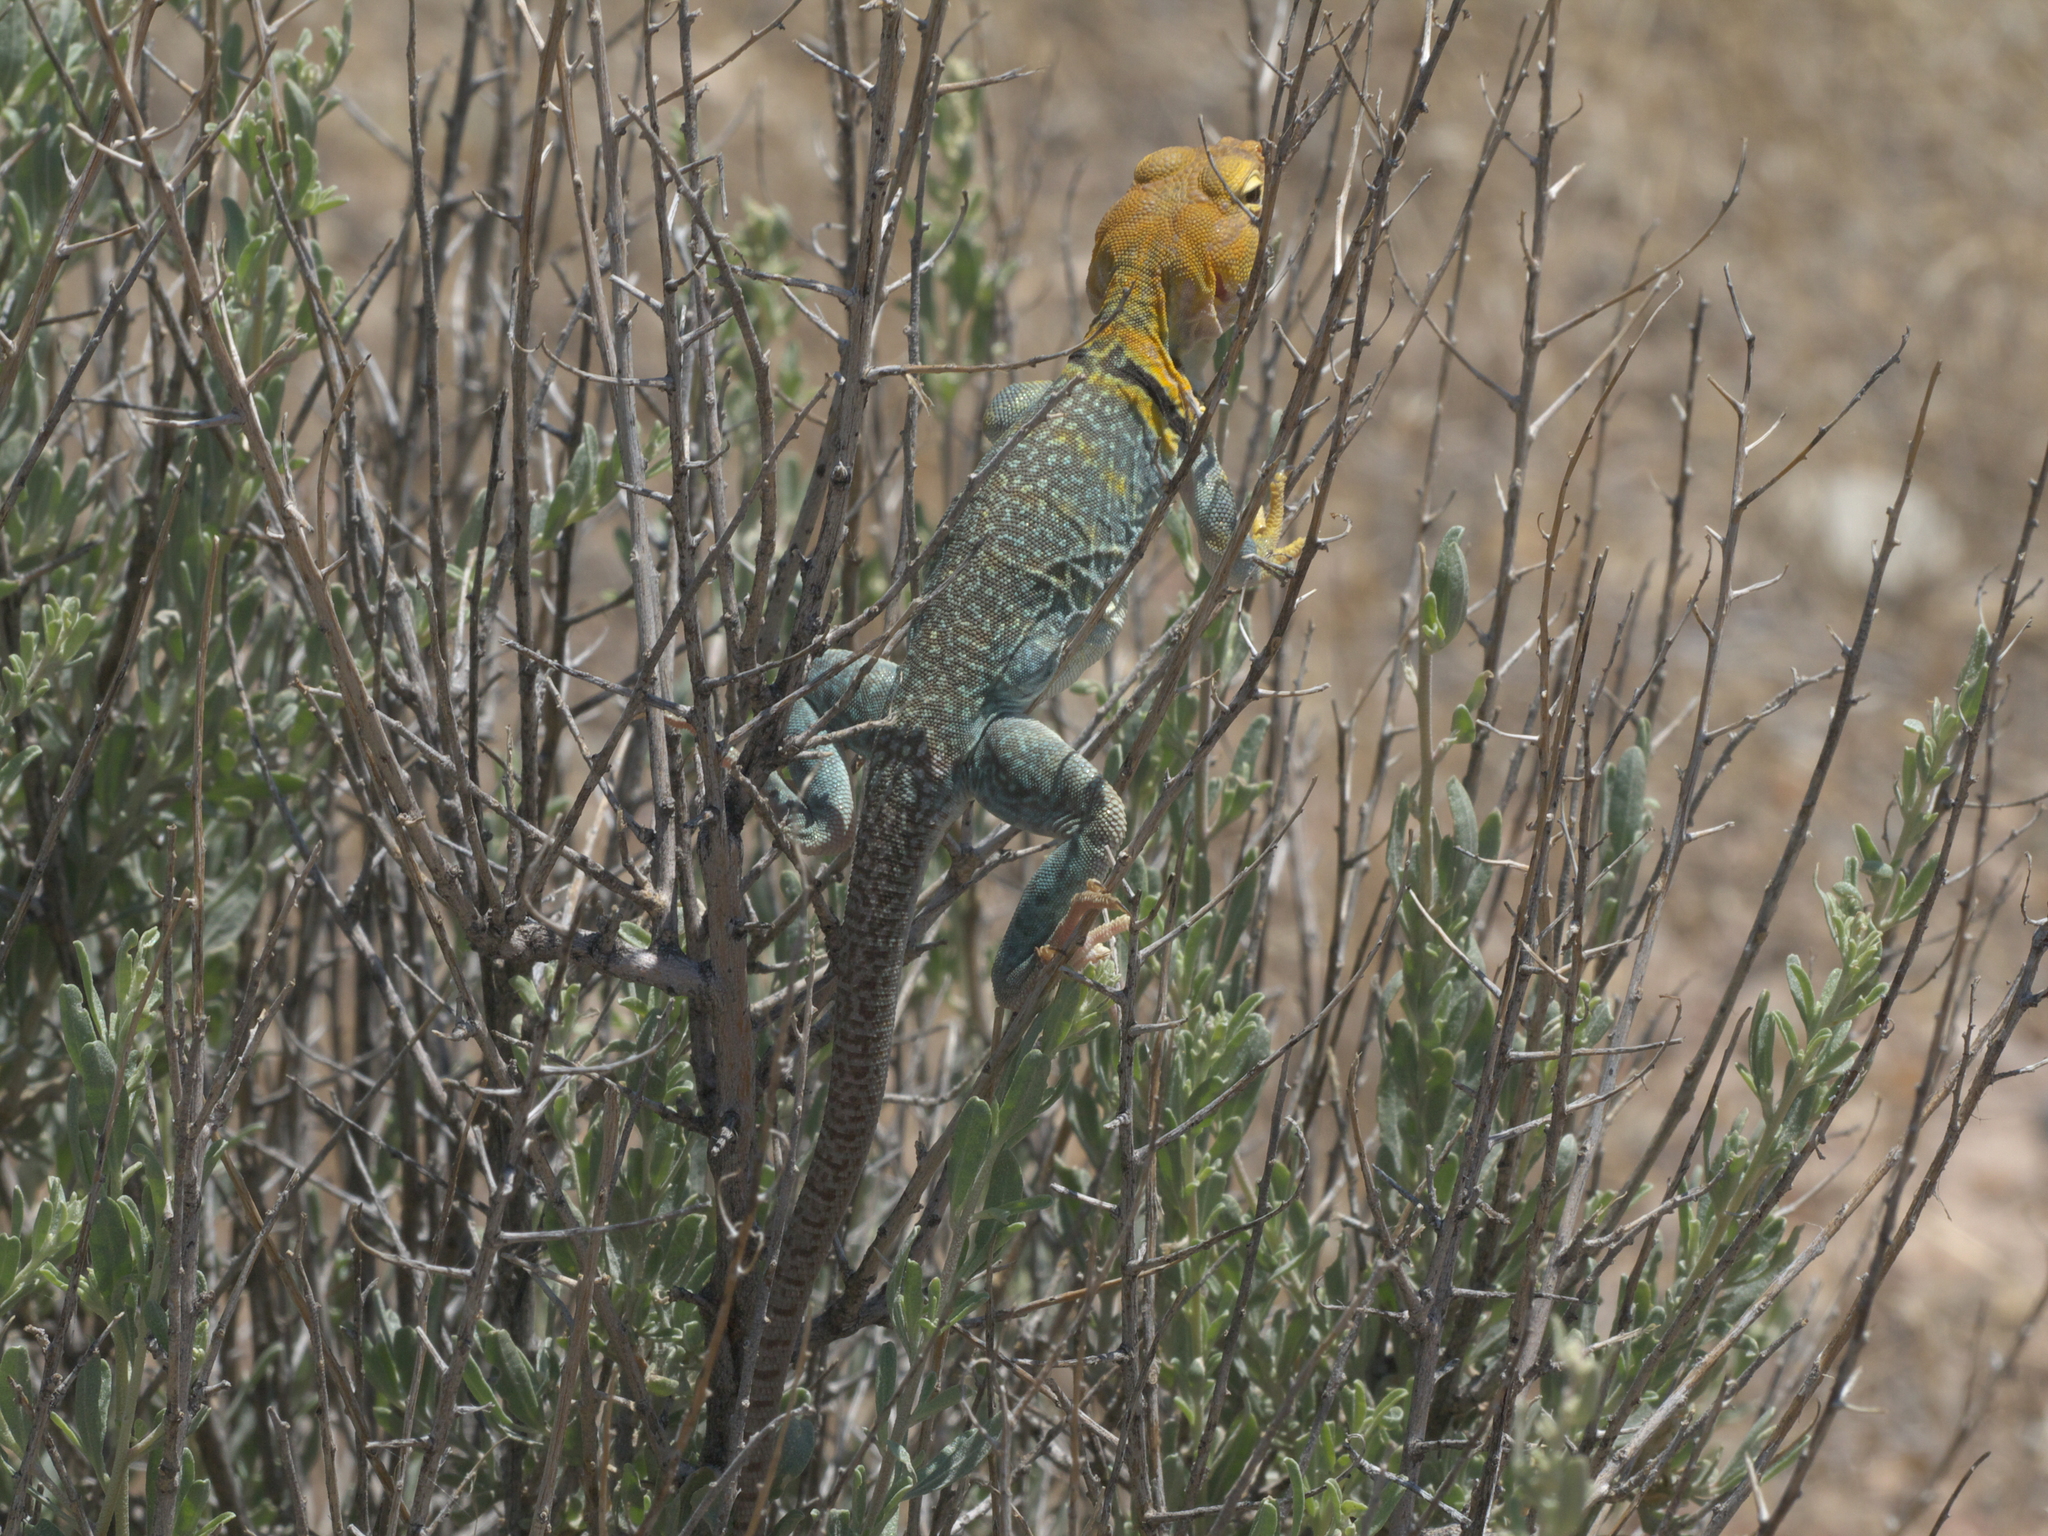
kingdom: Animalia
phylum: Chordata
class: Squamata
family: Crotaphytidae
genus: Crotaphytus
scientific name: Crotaphytus collaris
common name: Collared lizard
